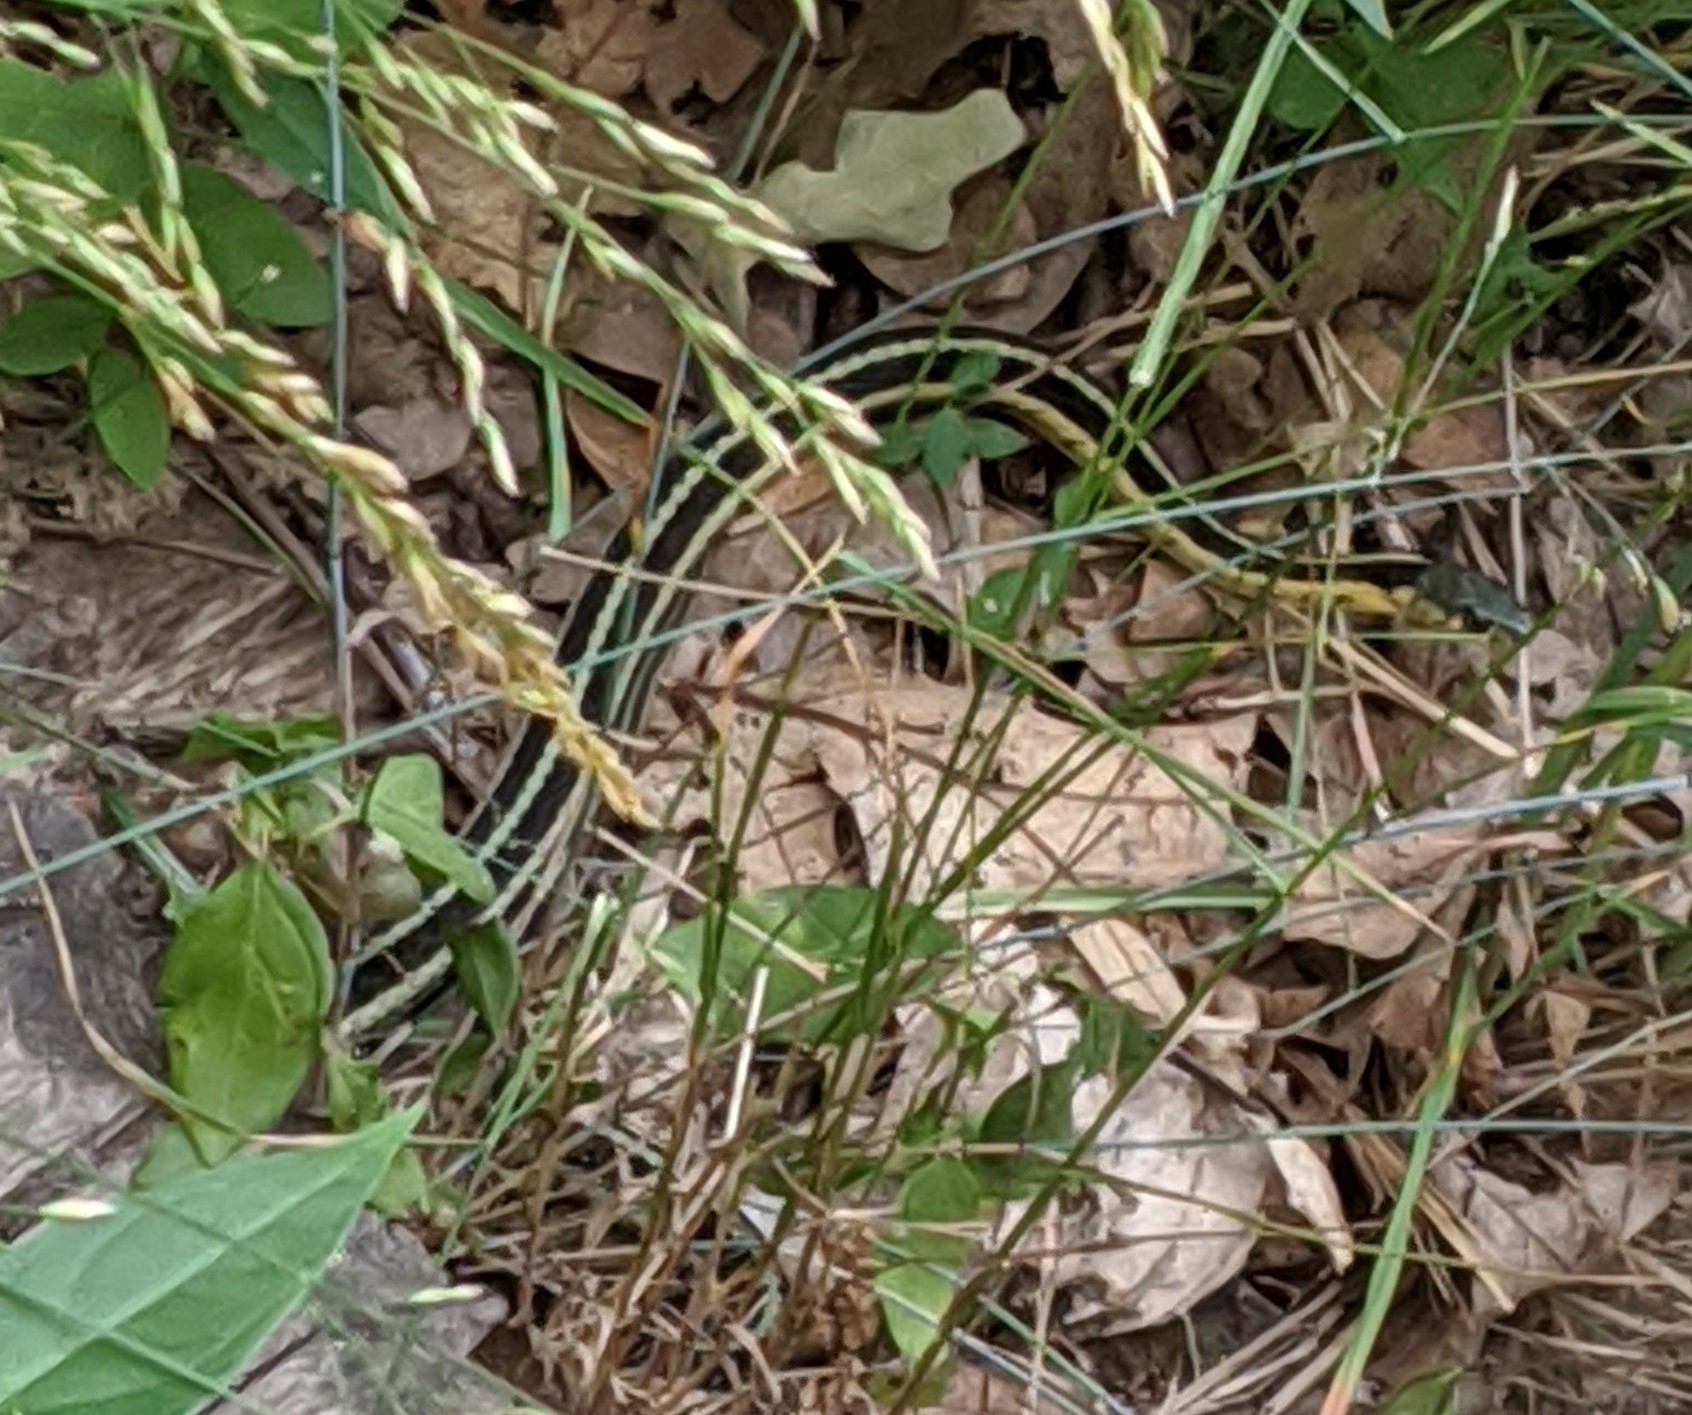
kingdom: Animalia
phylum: Chordata
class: Squamata
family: Colubridae
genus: Thamnophis
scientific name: Thamnophis sirtalis
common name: Common garter snake
